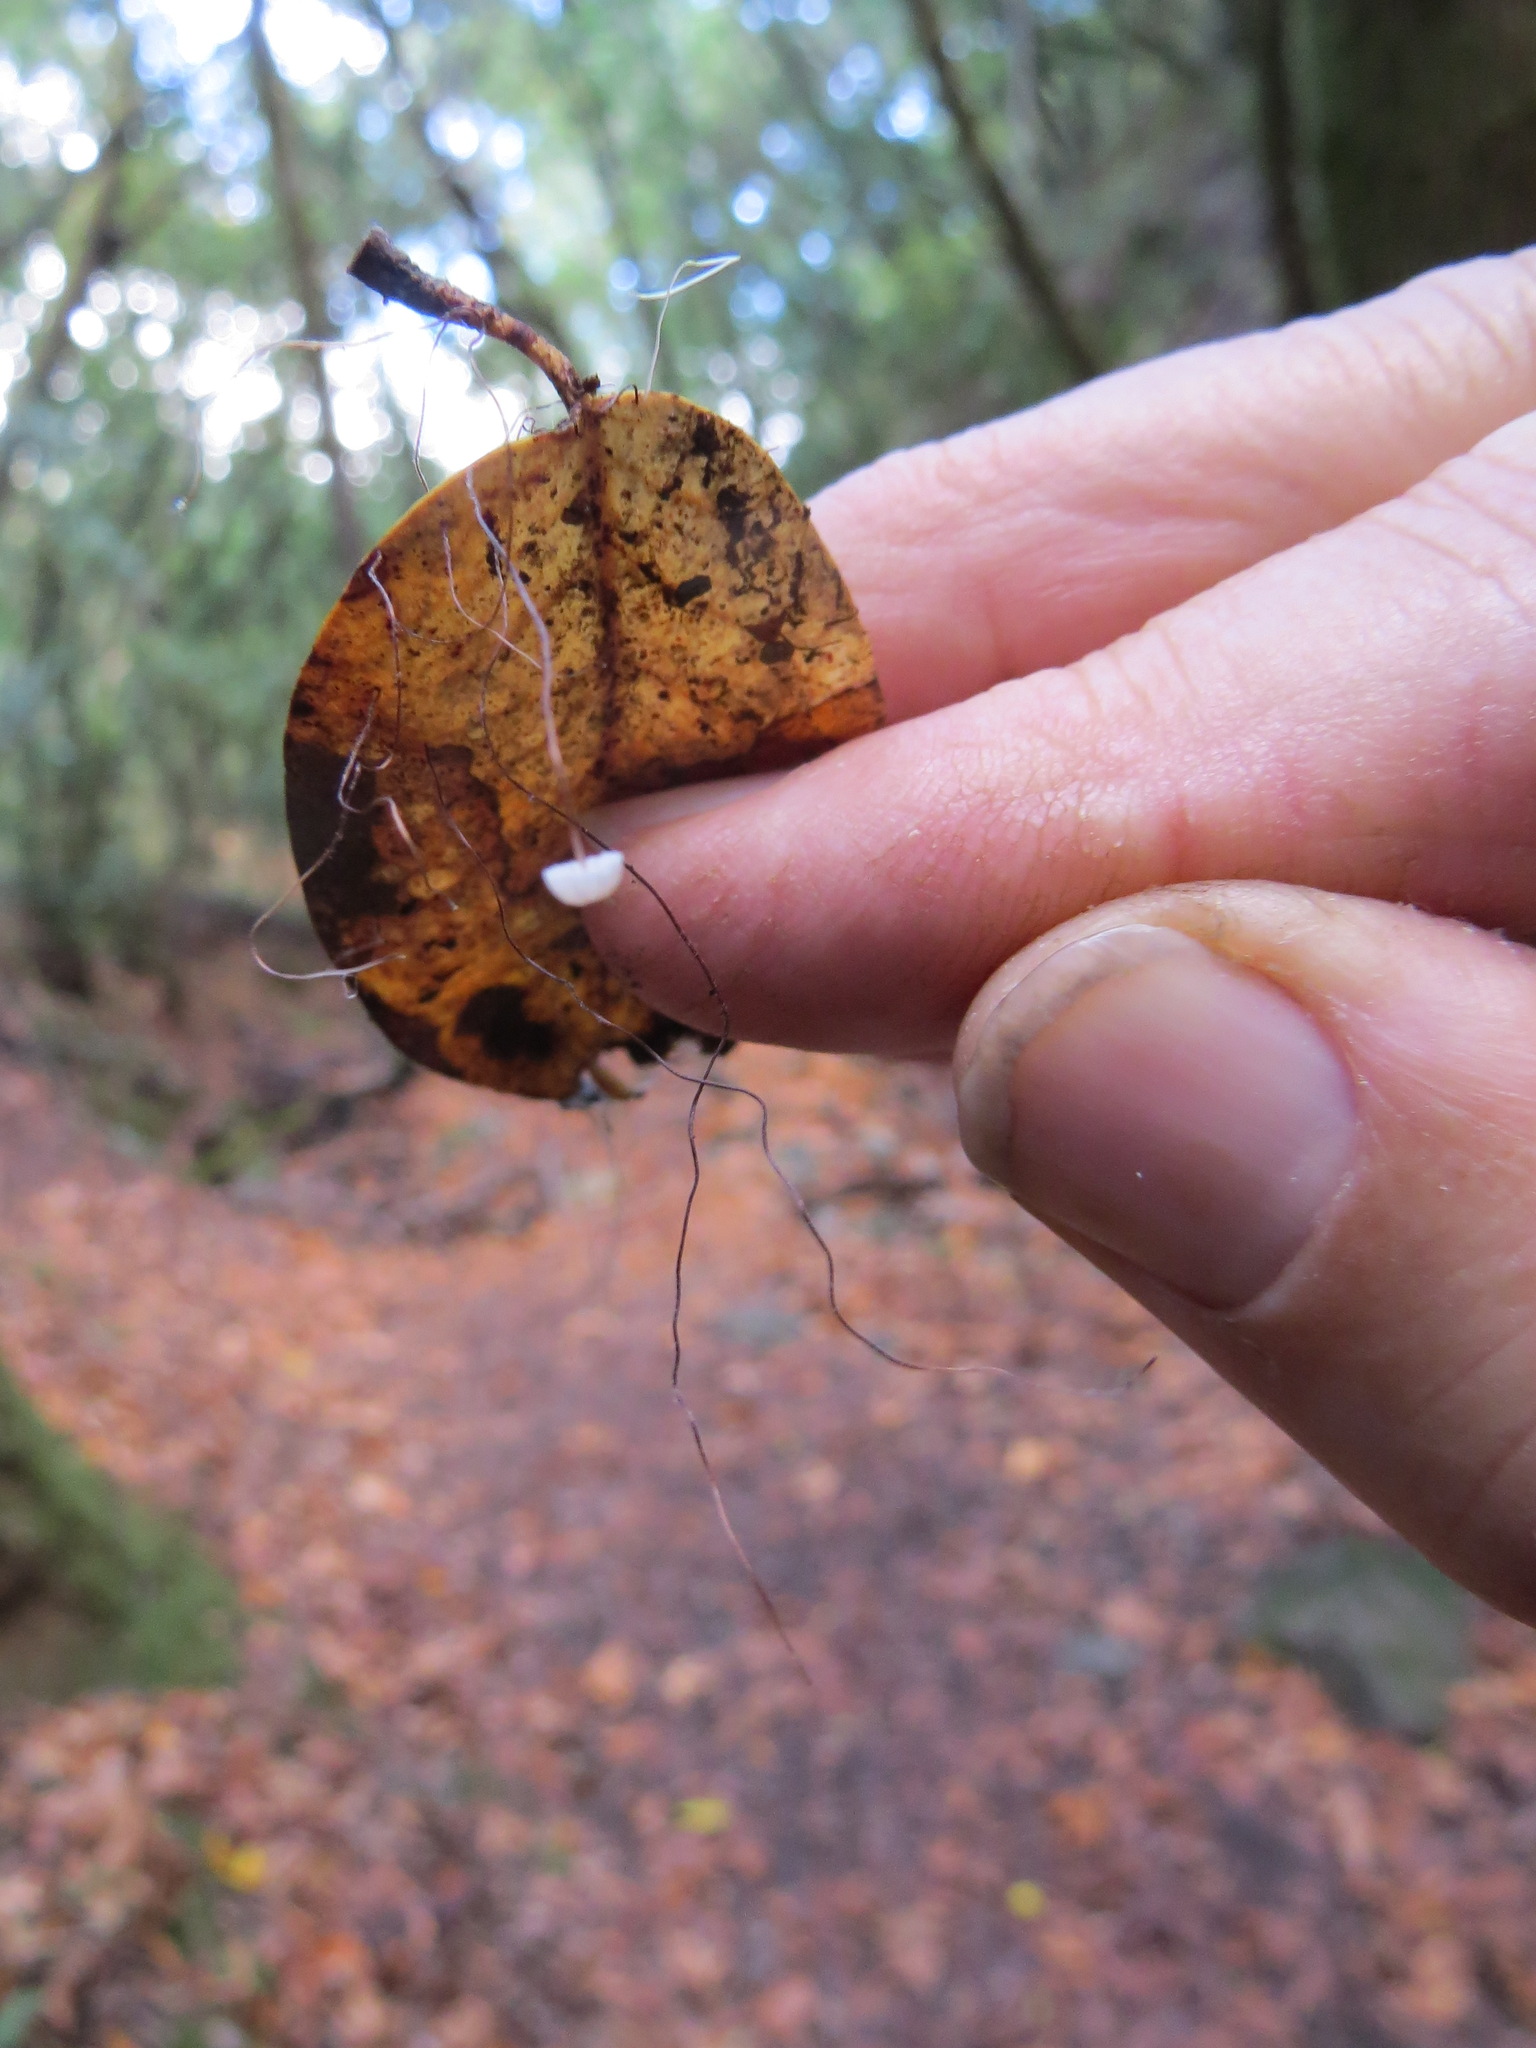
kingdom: Fungi
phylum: Basidiomycota
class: Agaricomycetes
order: Agaricales
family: Omphalotaceae
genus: Collybiopsis
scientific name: Collybiopsis quercophila
